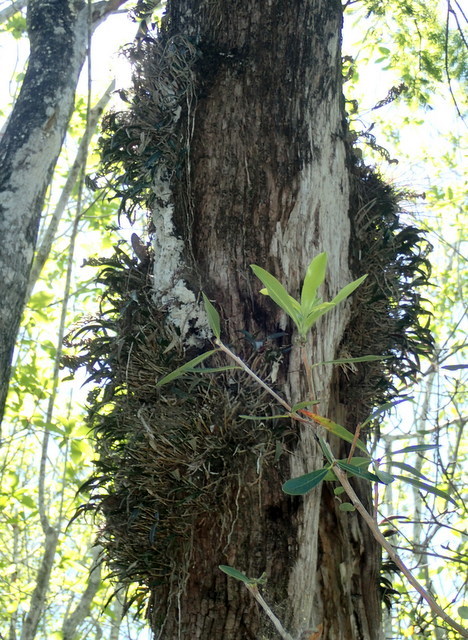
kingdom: Plantae
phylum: Tracheophyta
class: Liliopsida
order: Asparagales
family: Orchidaceae
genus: Epidendrum
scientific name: Epidendrum conopseum
